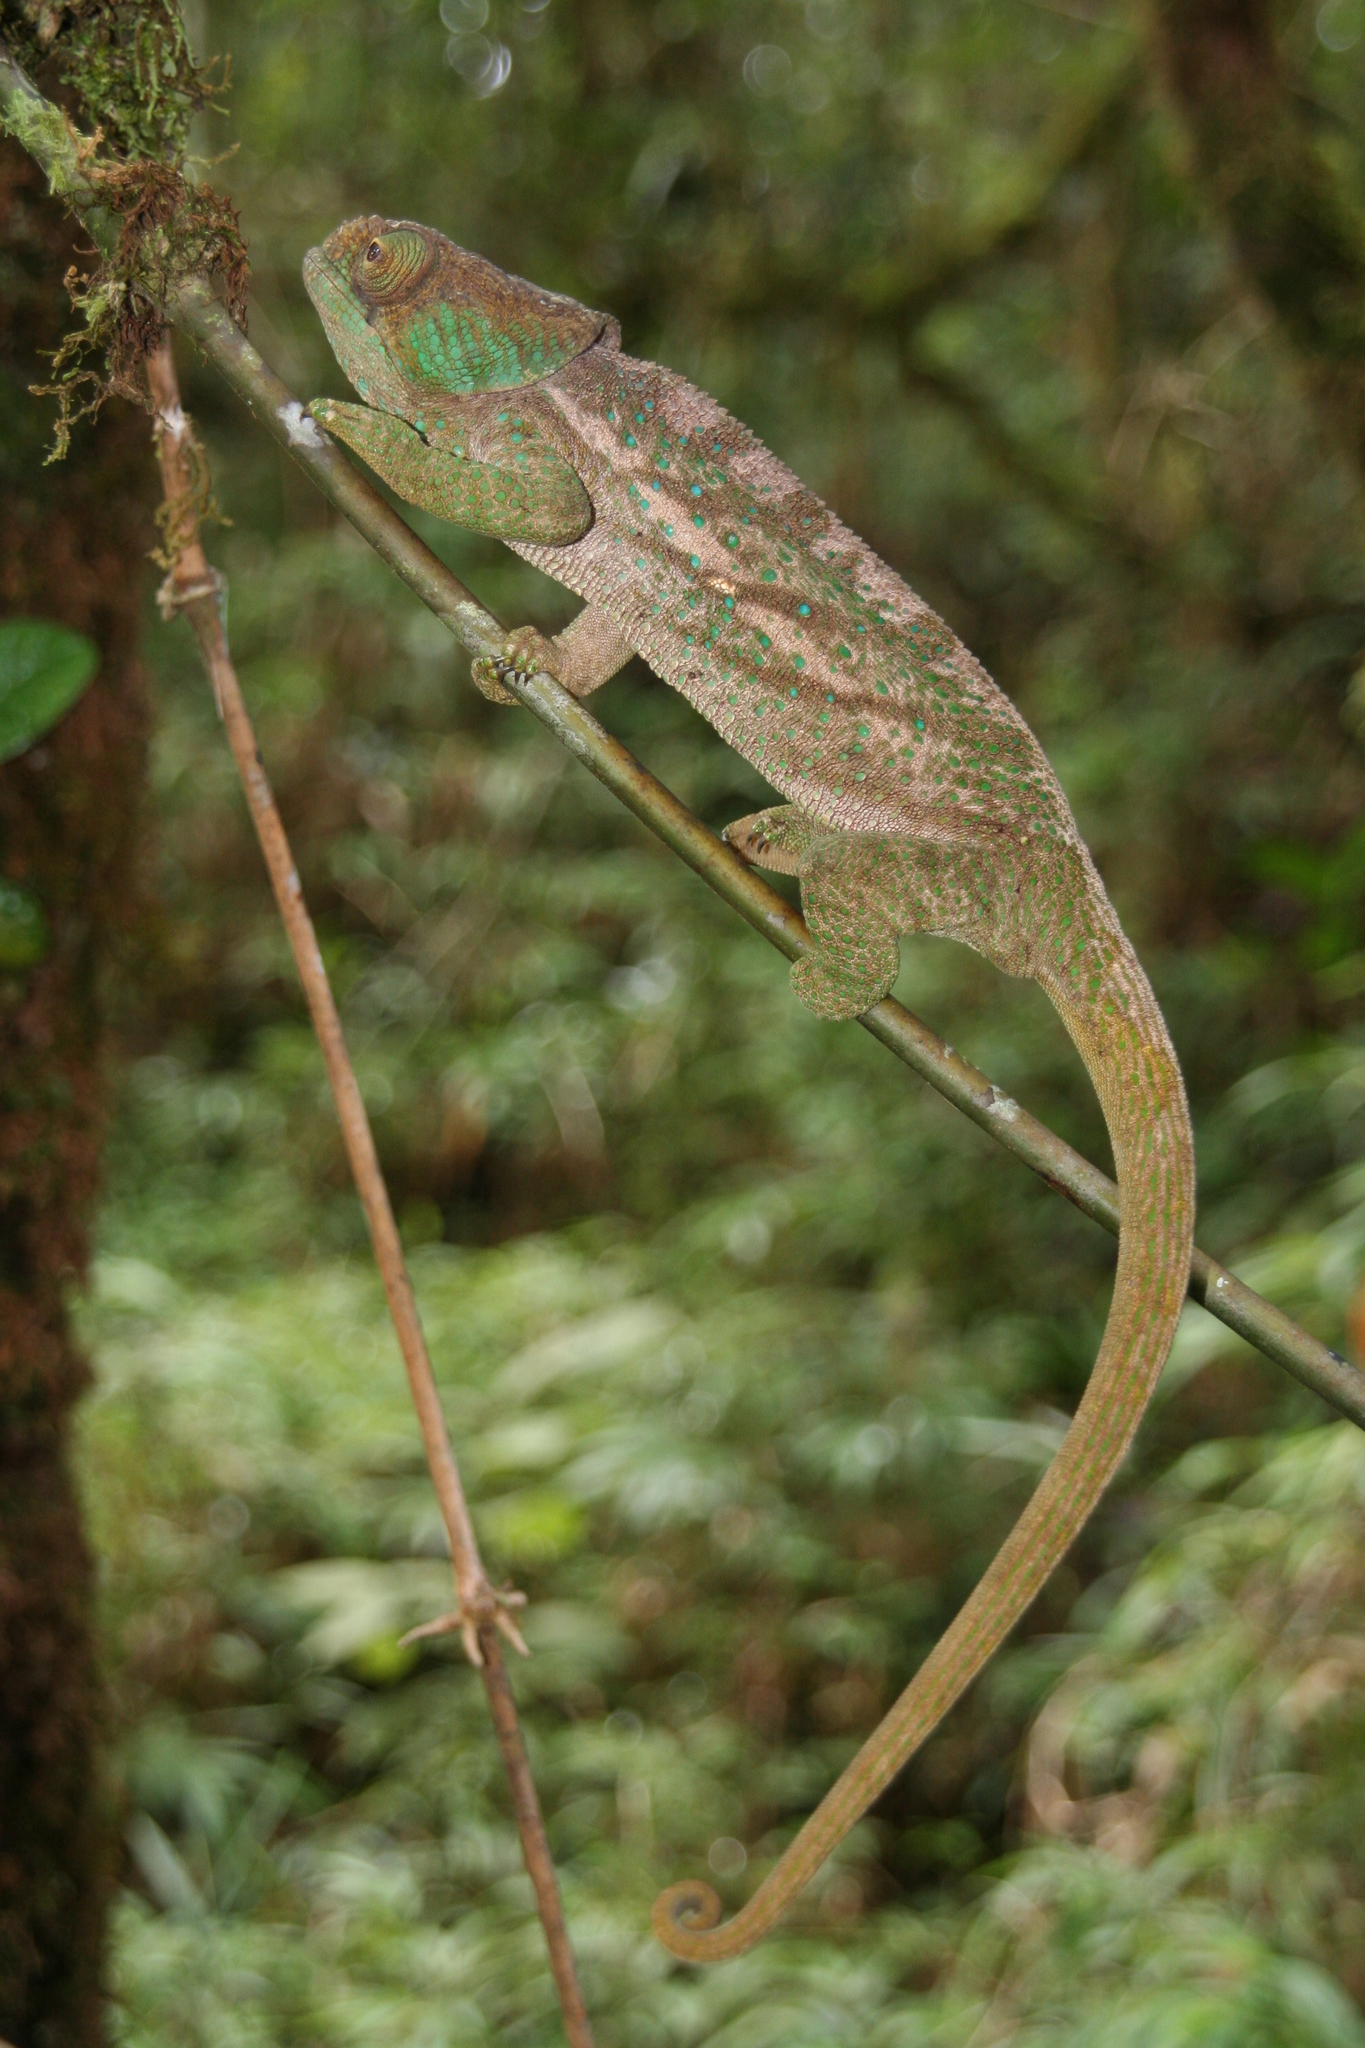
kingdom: Animalia
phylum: Chordata
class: Squamata
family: Chamaeleonidae
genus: Calumma
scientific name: Calumma oshaughnessyi
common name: O'shaughnessy's chameleon
